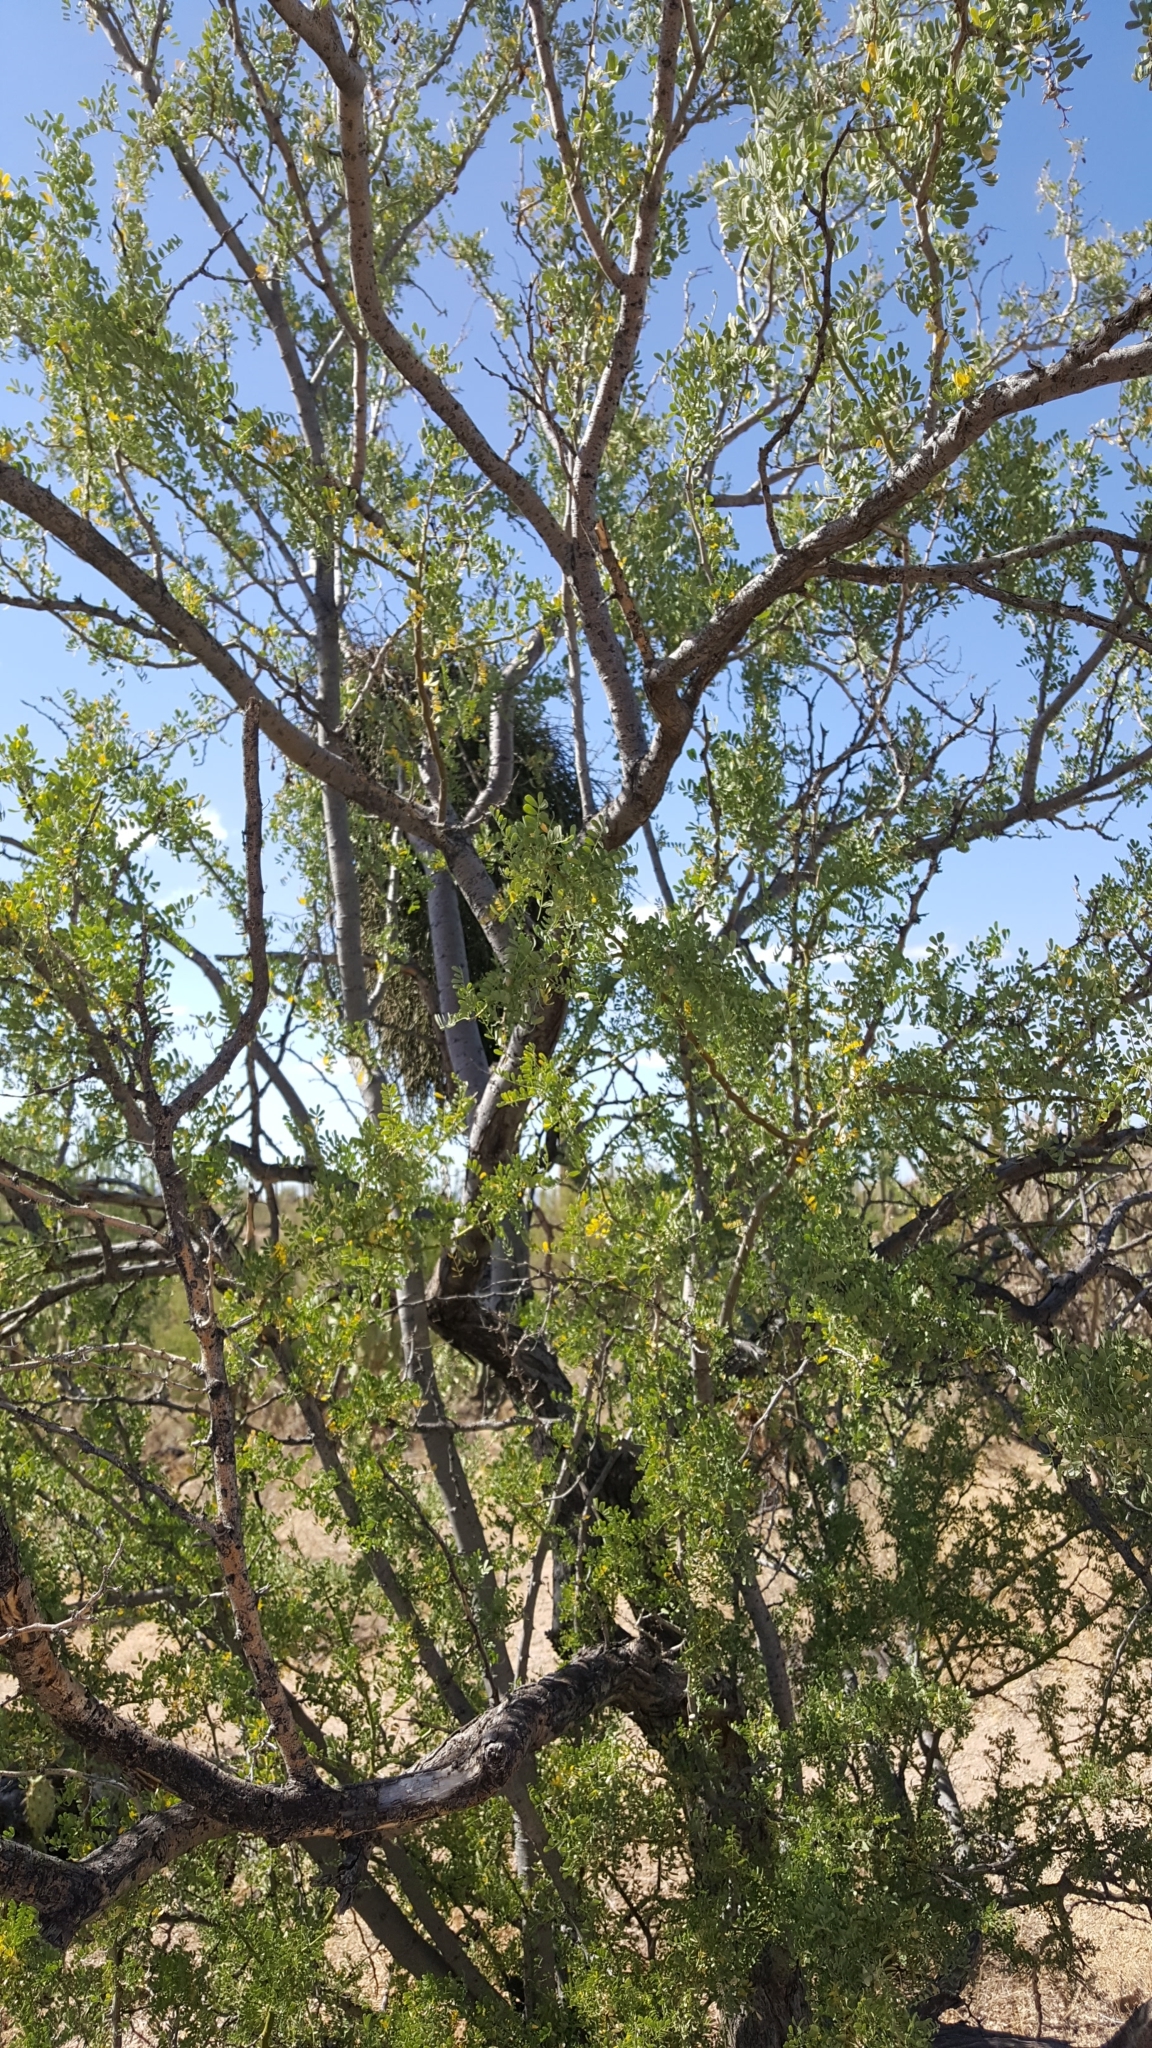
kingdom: Plantae
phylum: Tracheophyta
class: Magnoliopsida
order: Fabales
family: Fabaceae
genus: Olneya
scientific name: Olneya tesota
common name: Desert ironwood
